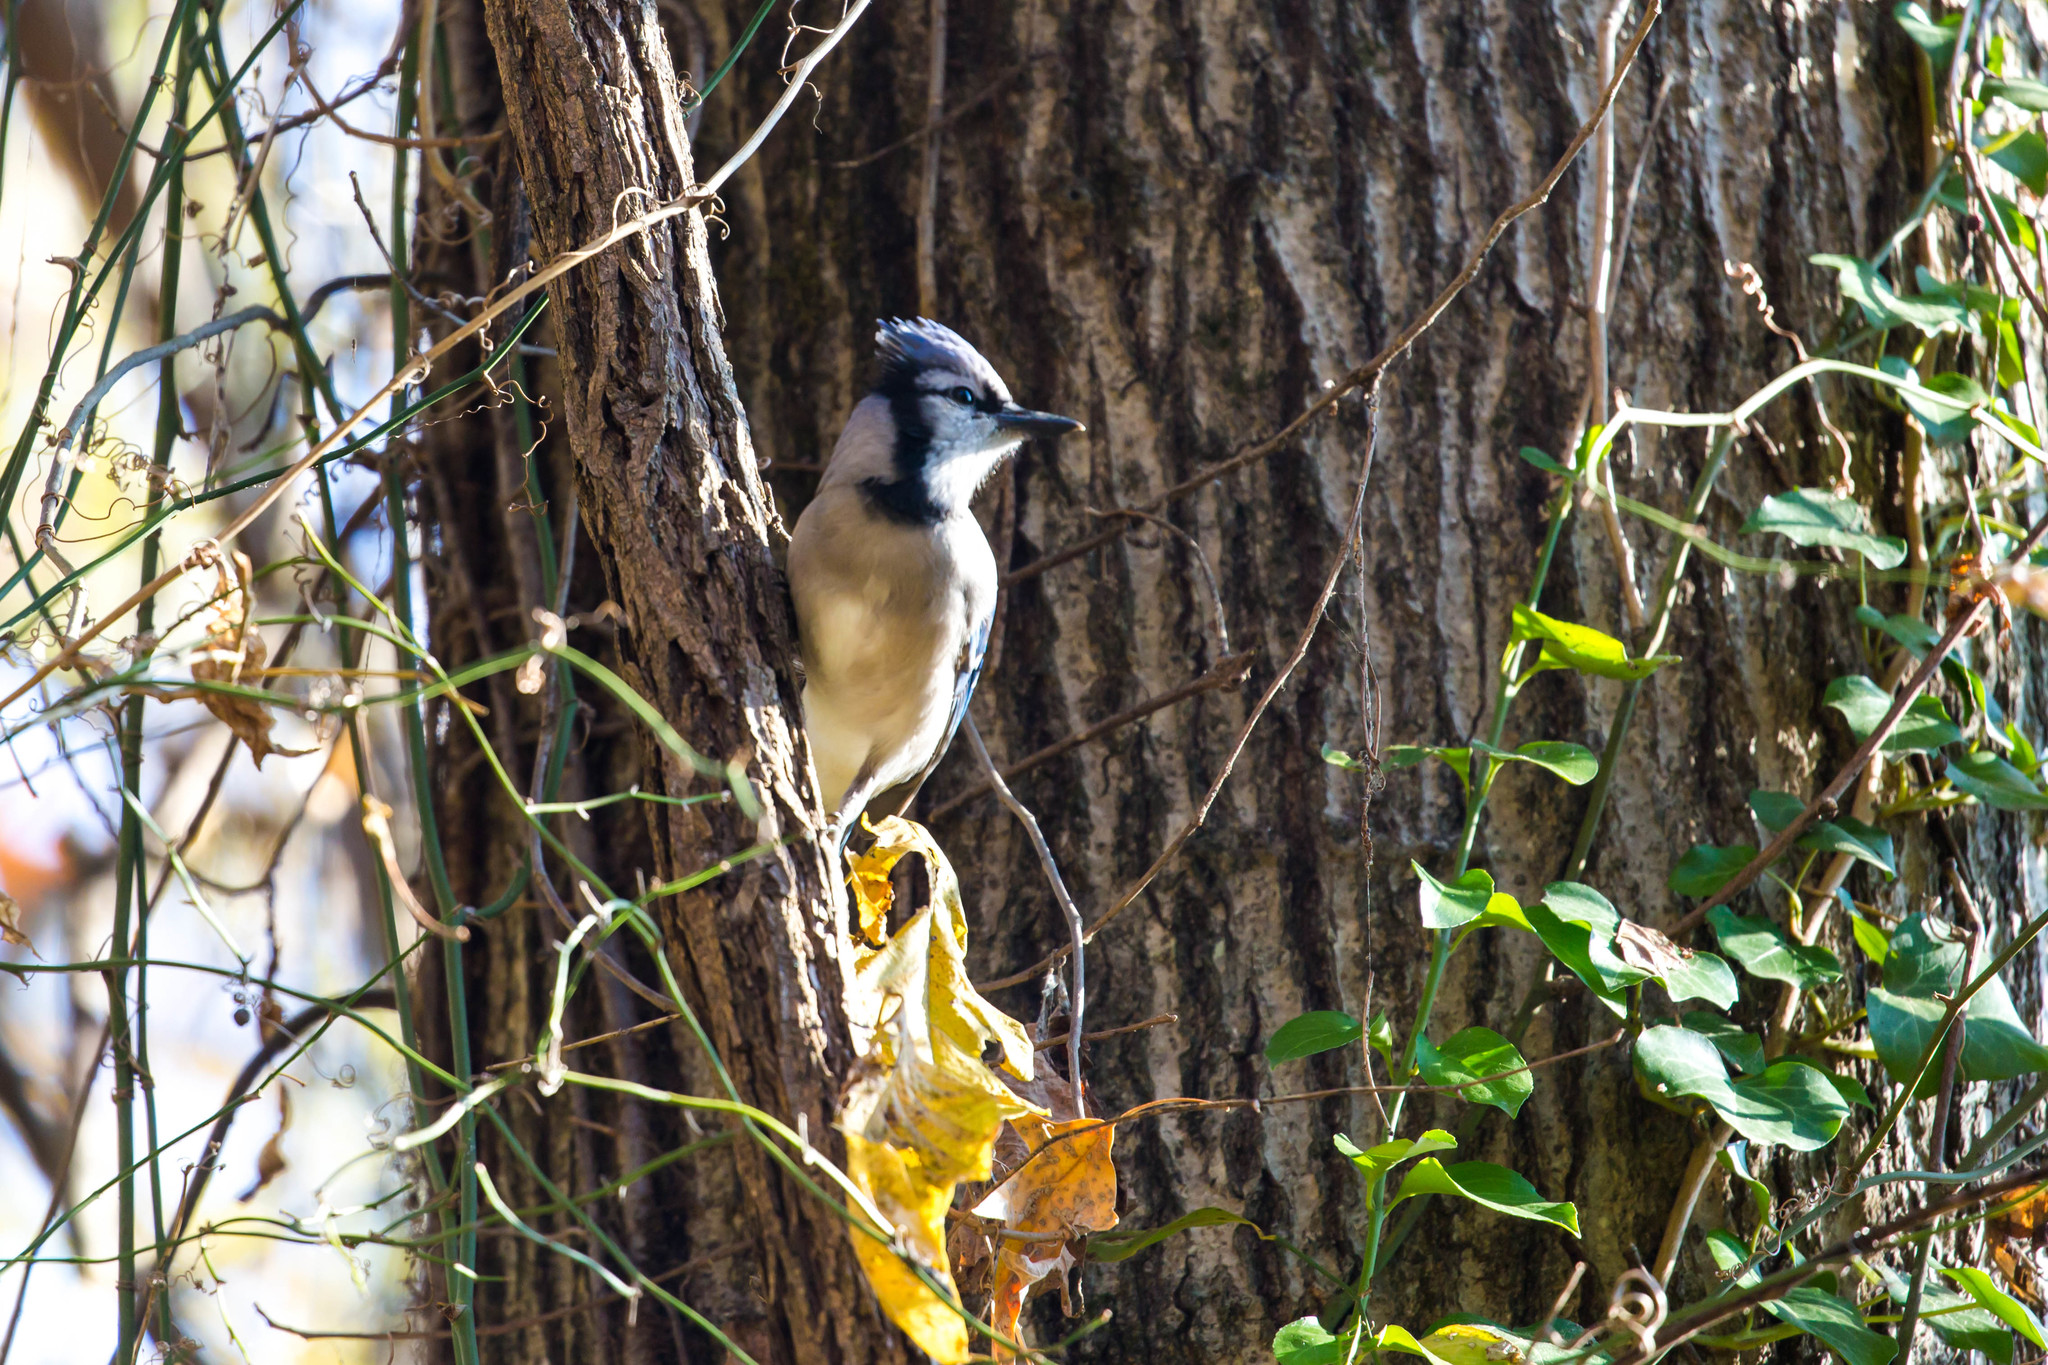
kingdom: Animalia
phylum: Chordata
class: Aves
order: Passeriformes
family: Corvidae
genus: Cyanocitta
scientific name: Cyanocitta cristata
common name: Blue jay
